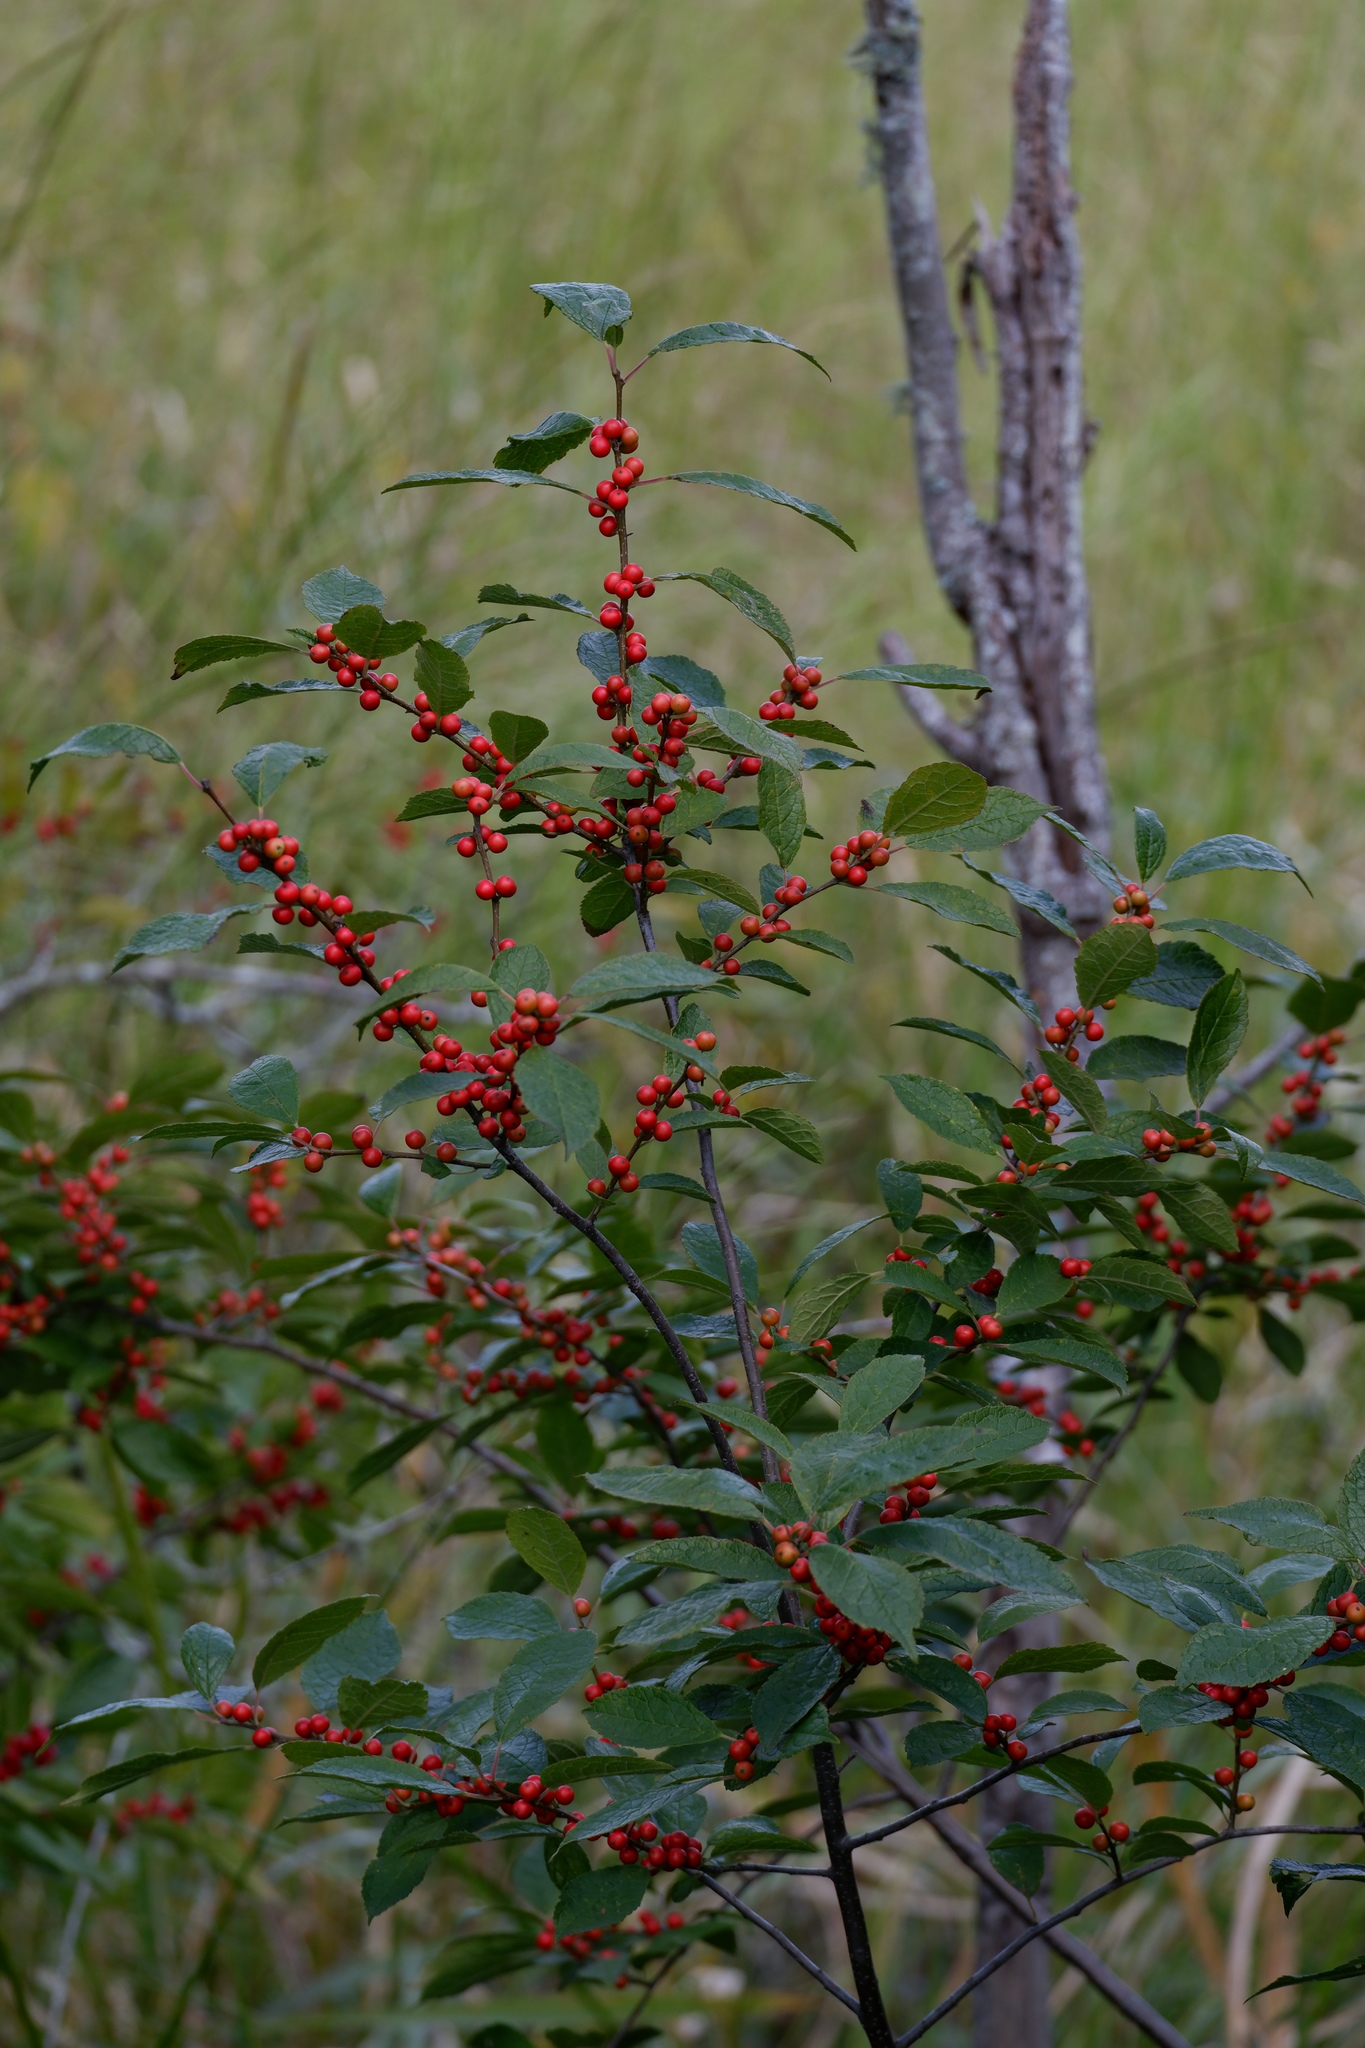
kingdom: Plantae
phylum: Tracheophyta
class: Magnoliopsida
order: Aquifoliales
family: Aquifoliaceae
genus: Ilex
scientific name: Ilex verticillata
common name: Virginia winterberry
